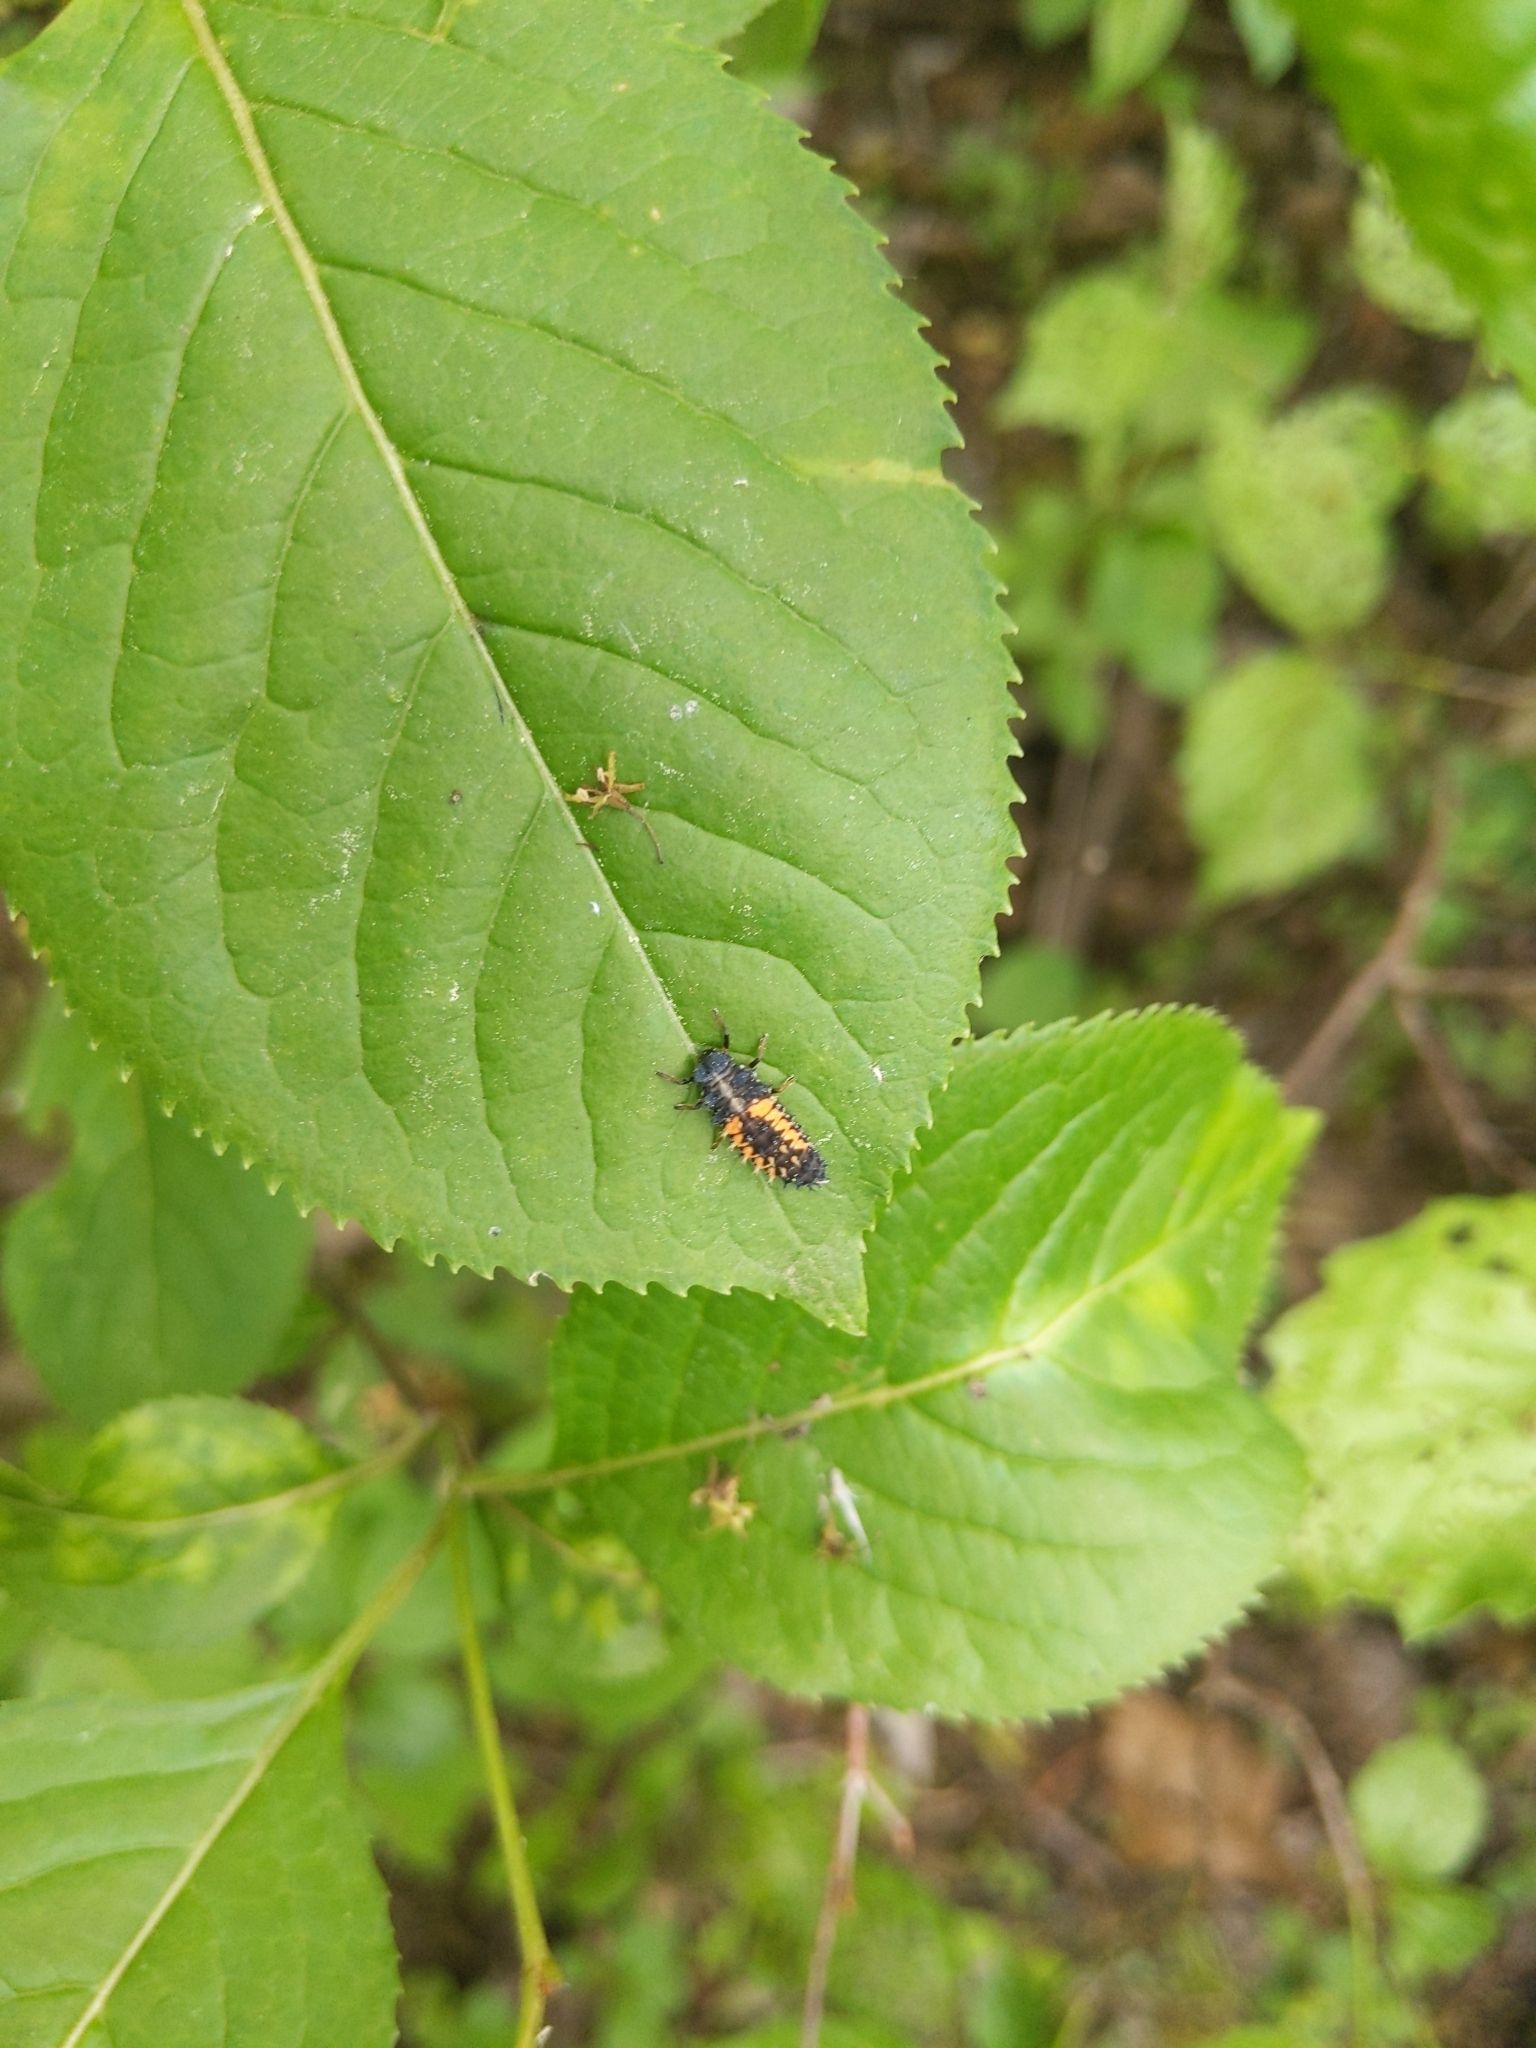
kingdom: Animalia
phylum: Arthropoda
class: Insecta
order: Coleoptera
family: Coccinellidae
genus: Harmonia
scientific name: Harmonia axyridis
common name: Harlequin ladybird
